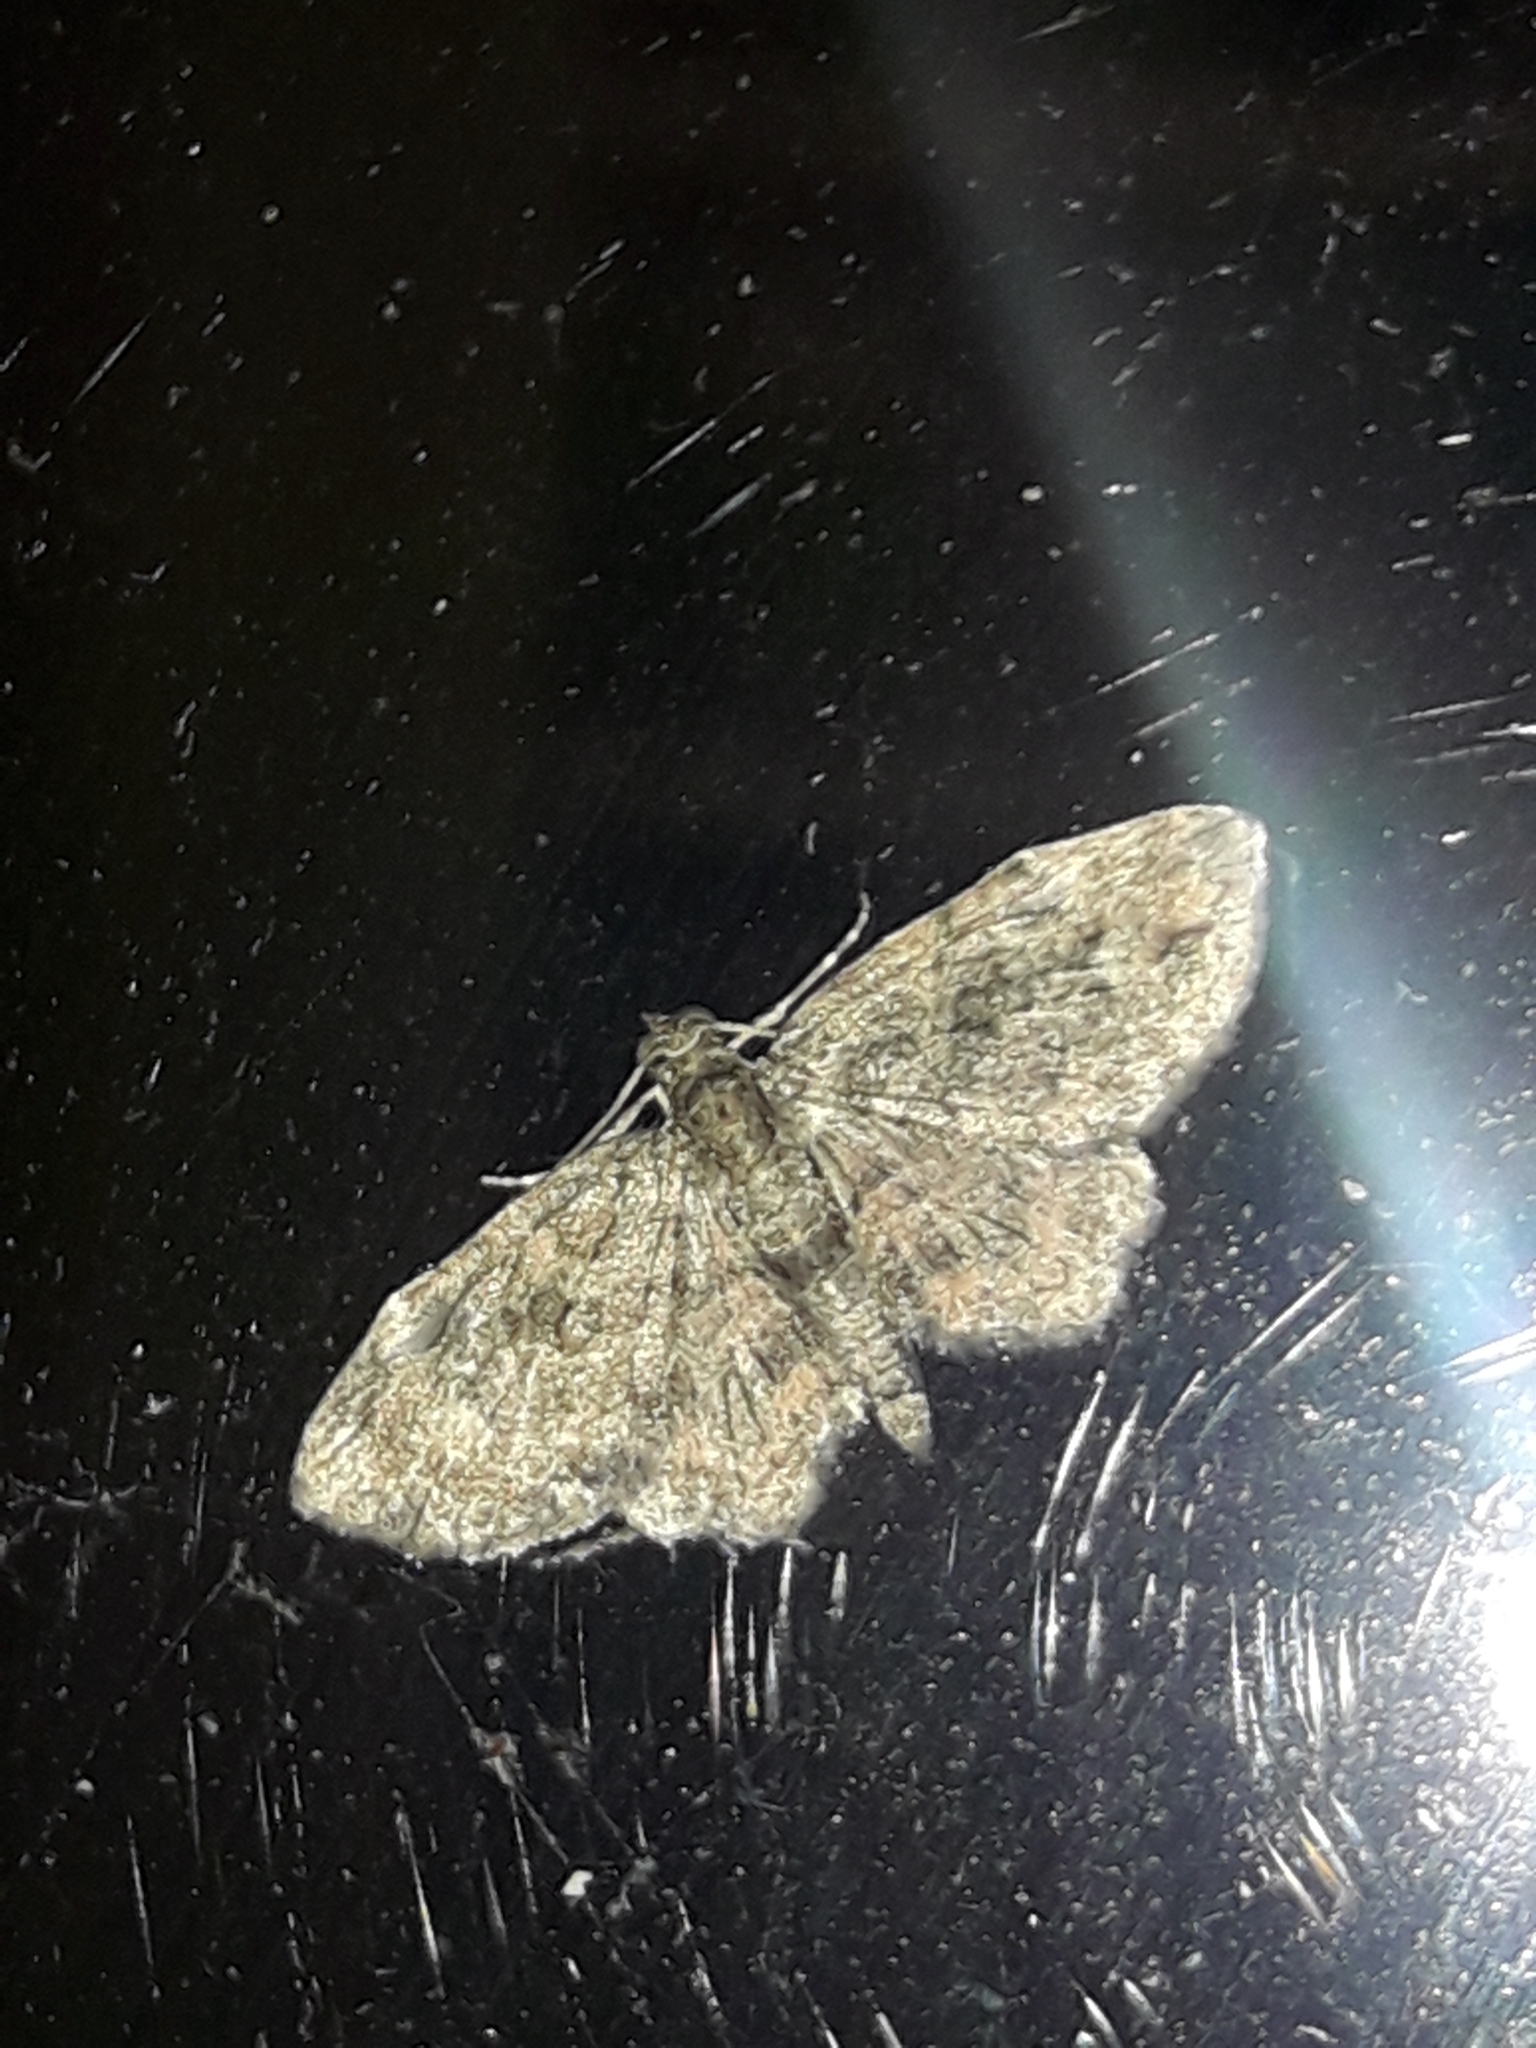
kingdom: Animalia
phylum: Arthropoda
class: Insecta
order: Lepidoptera
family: Geometridae
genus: Pasiphilodes
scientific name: Pasiphilodes testulata
